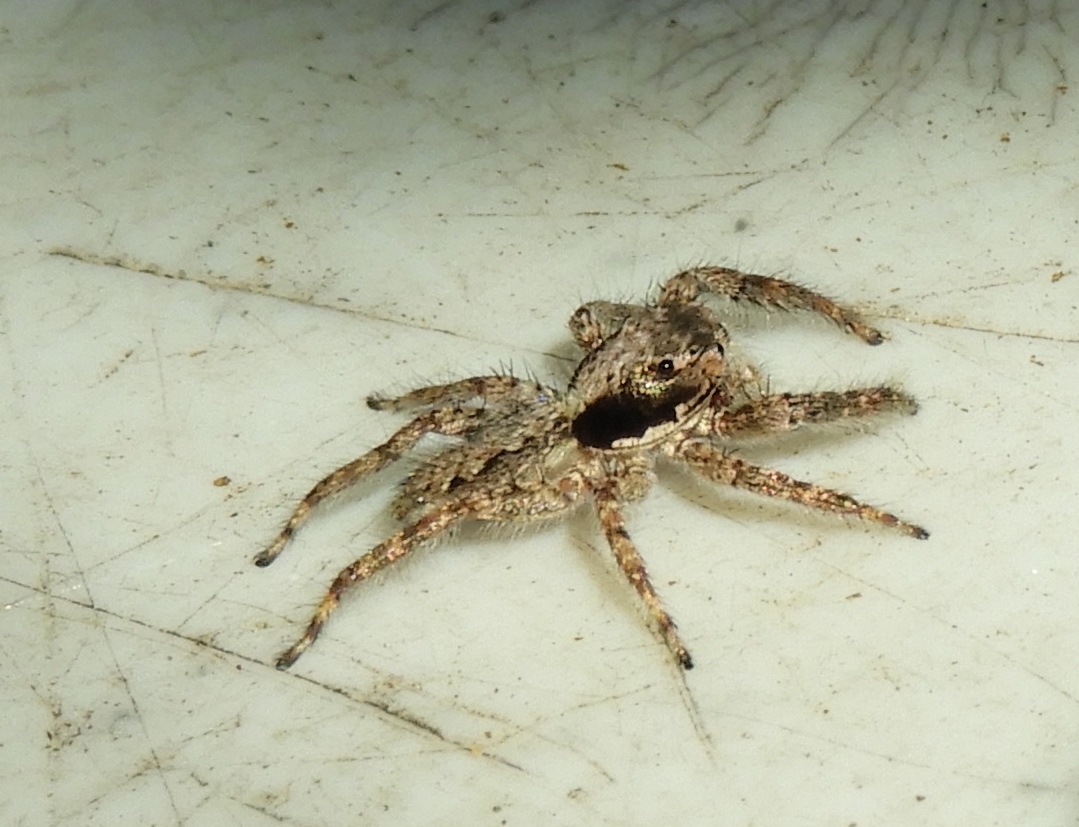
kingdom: Animalia
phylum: Arthropoda
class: Arachnida
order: Araneae
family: Salticidae
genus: Balmaceda
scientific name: Balmaceda
